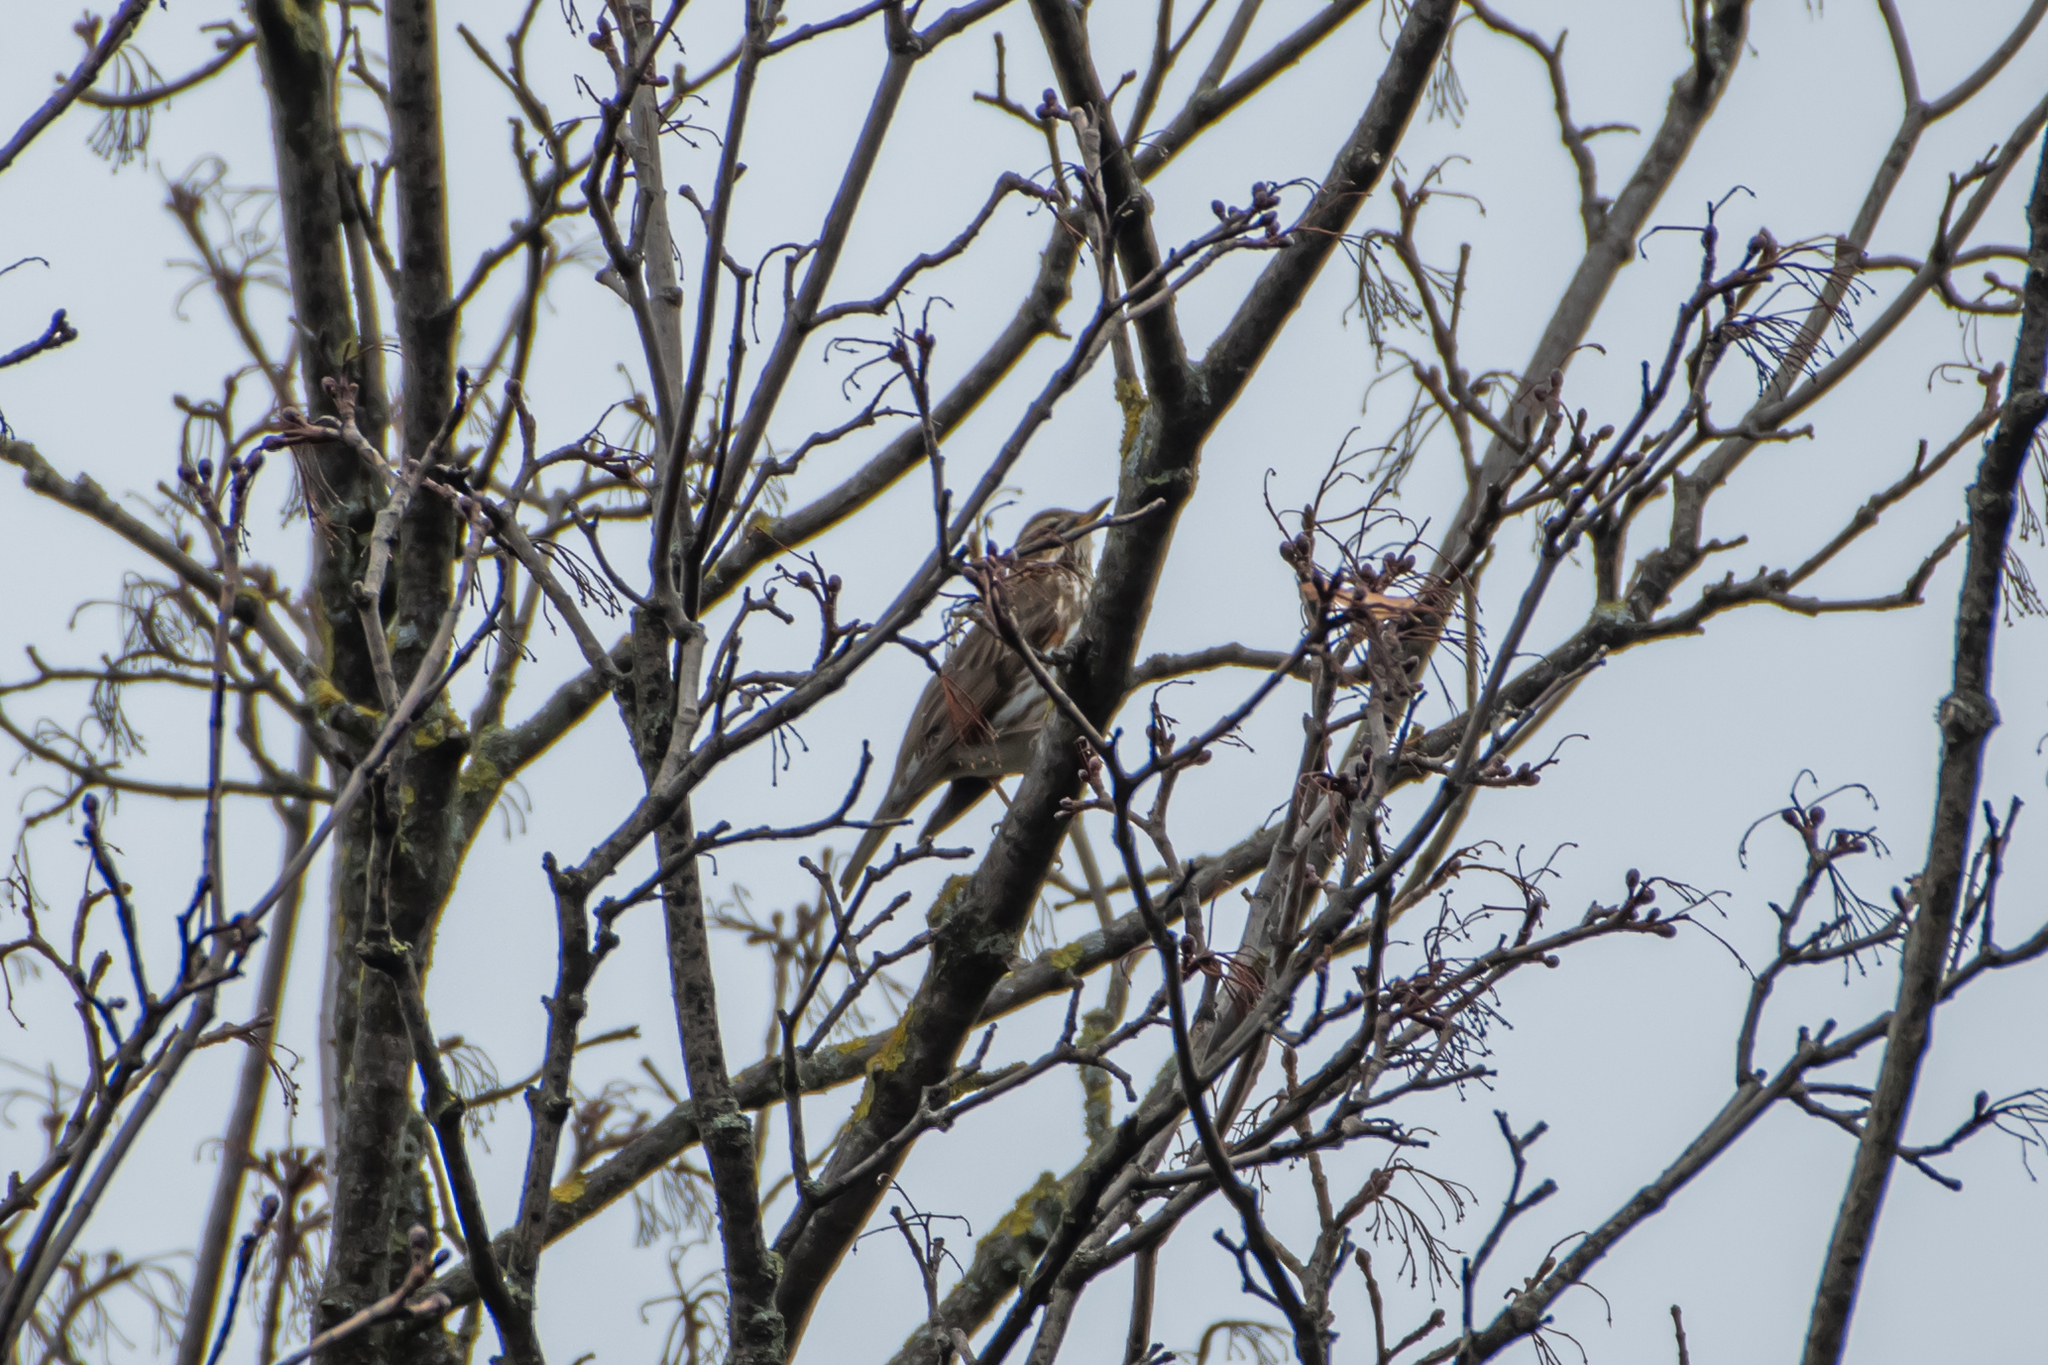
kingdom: Animalia
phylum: Chordata
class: Aves
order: Passeriformes
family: Turdidae
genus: Turdus
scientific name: Turdus iliacus
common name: Redwing
